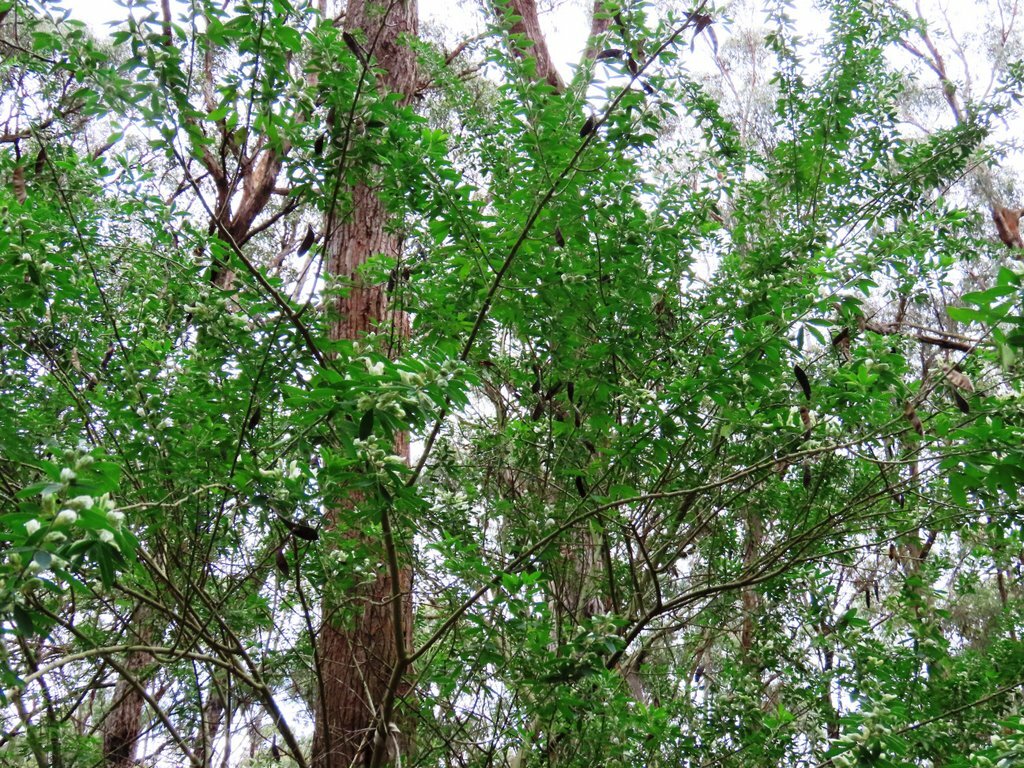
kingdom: Plantae
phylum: Tracheophyta
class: Magnoliopsida
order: Fabales
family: Fabaceae
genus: Chamaecytisus
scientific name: Chamaecytisus prolifer
